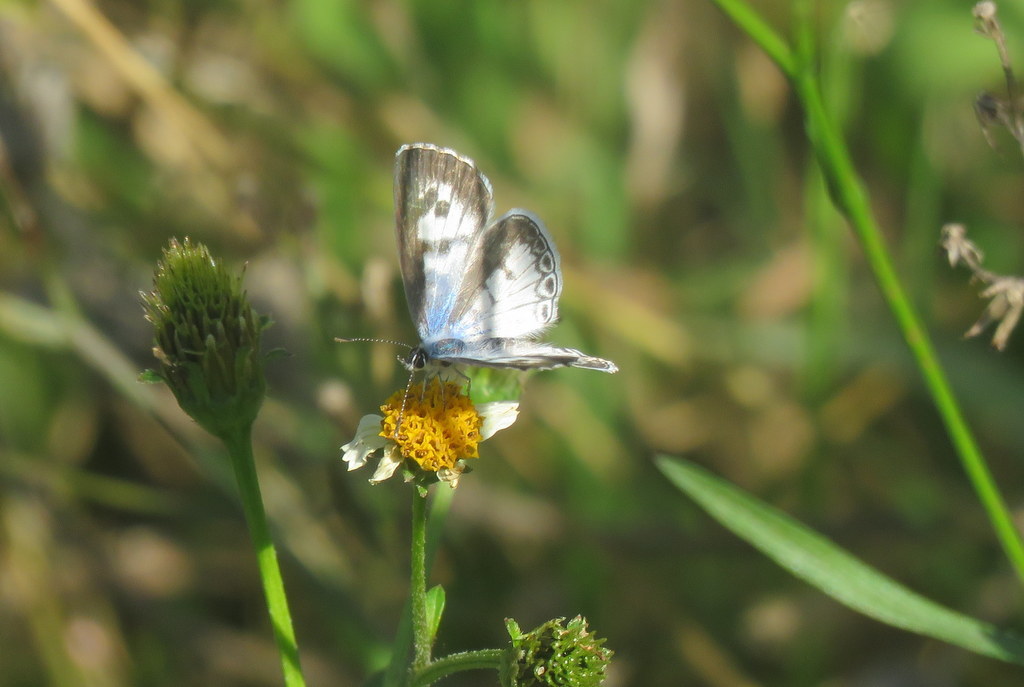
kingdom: Animalia
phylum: Arthropoda
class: Insecta
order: Lepidoptera
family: Lycaenidae
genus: Leptotes
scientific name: Leptotes cassius
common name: Cassius blue
